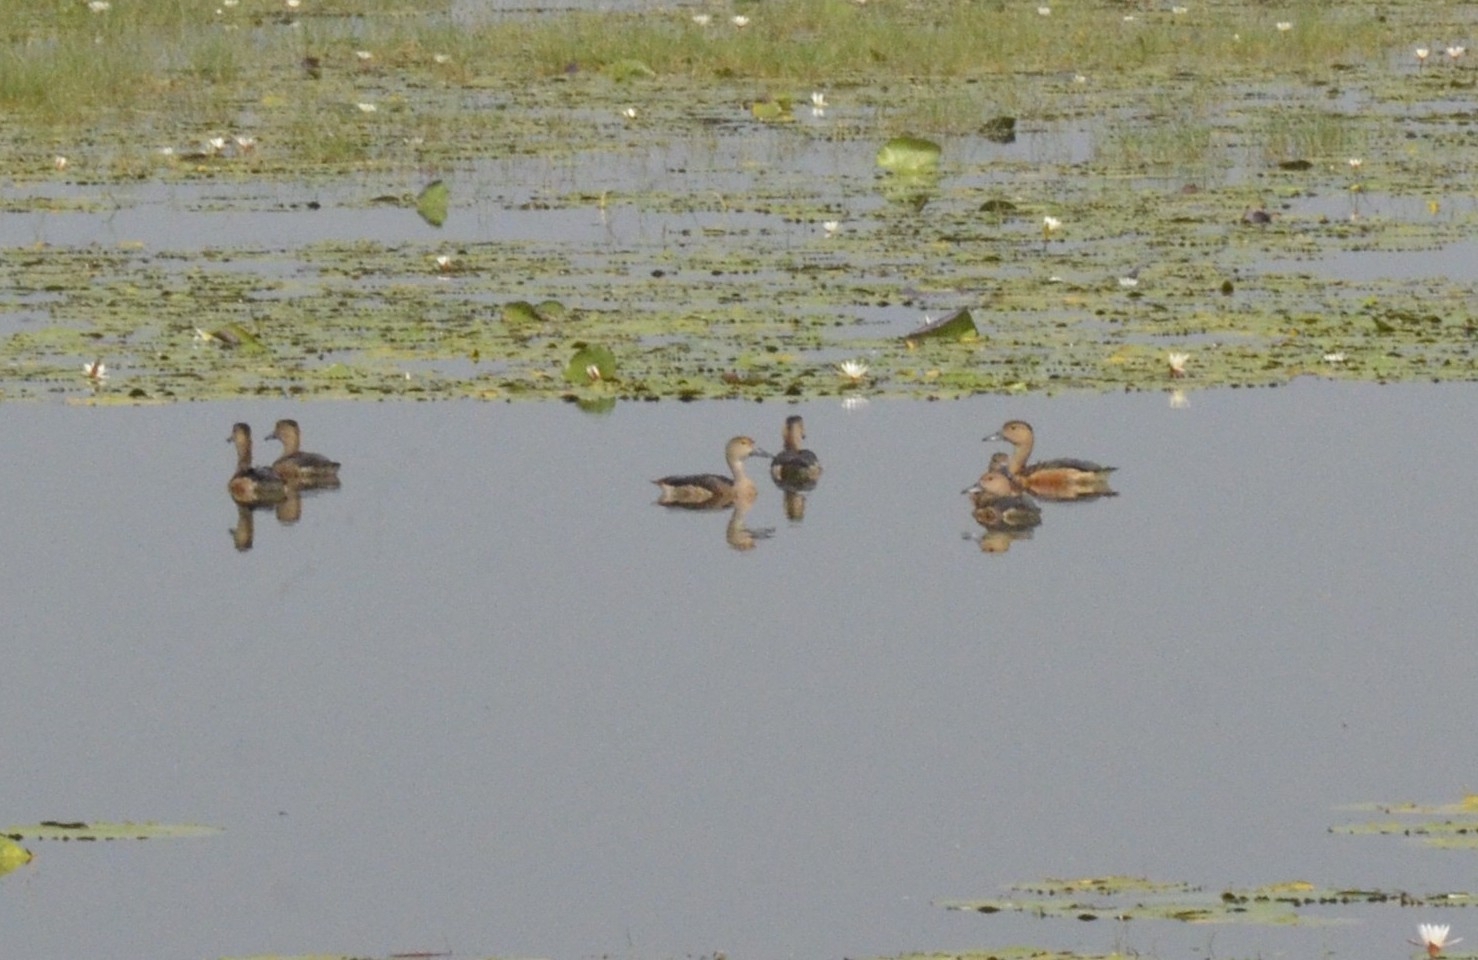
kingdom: Animalia
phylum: Chordata
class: Aves
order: Anseriformes
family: Anatidae
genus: Dendrocygna
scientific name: Dendrocygna javanica
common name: Lesser whistling-duck
